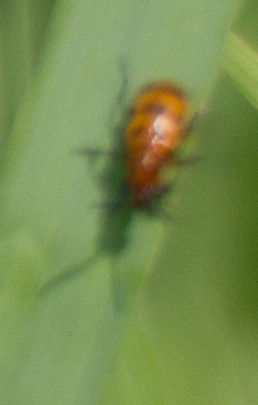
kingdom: Animalia
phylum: Arthropoda
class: Insecta
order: Coleoptera
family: Chrysomelidae
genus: Crioceris
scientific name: Crioceris quatuordecimpunctata
